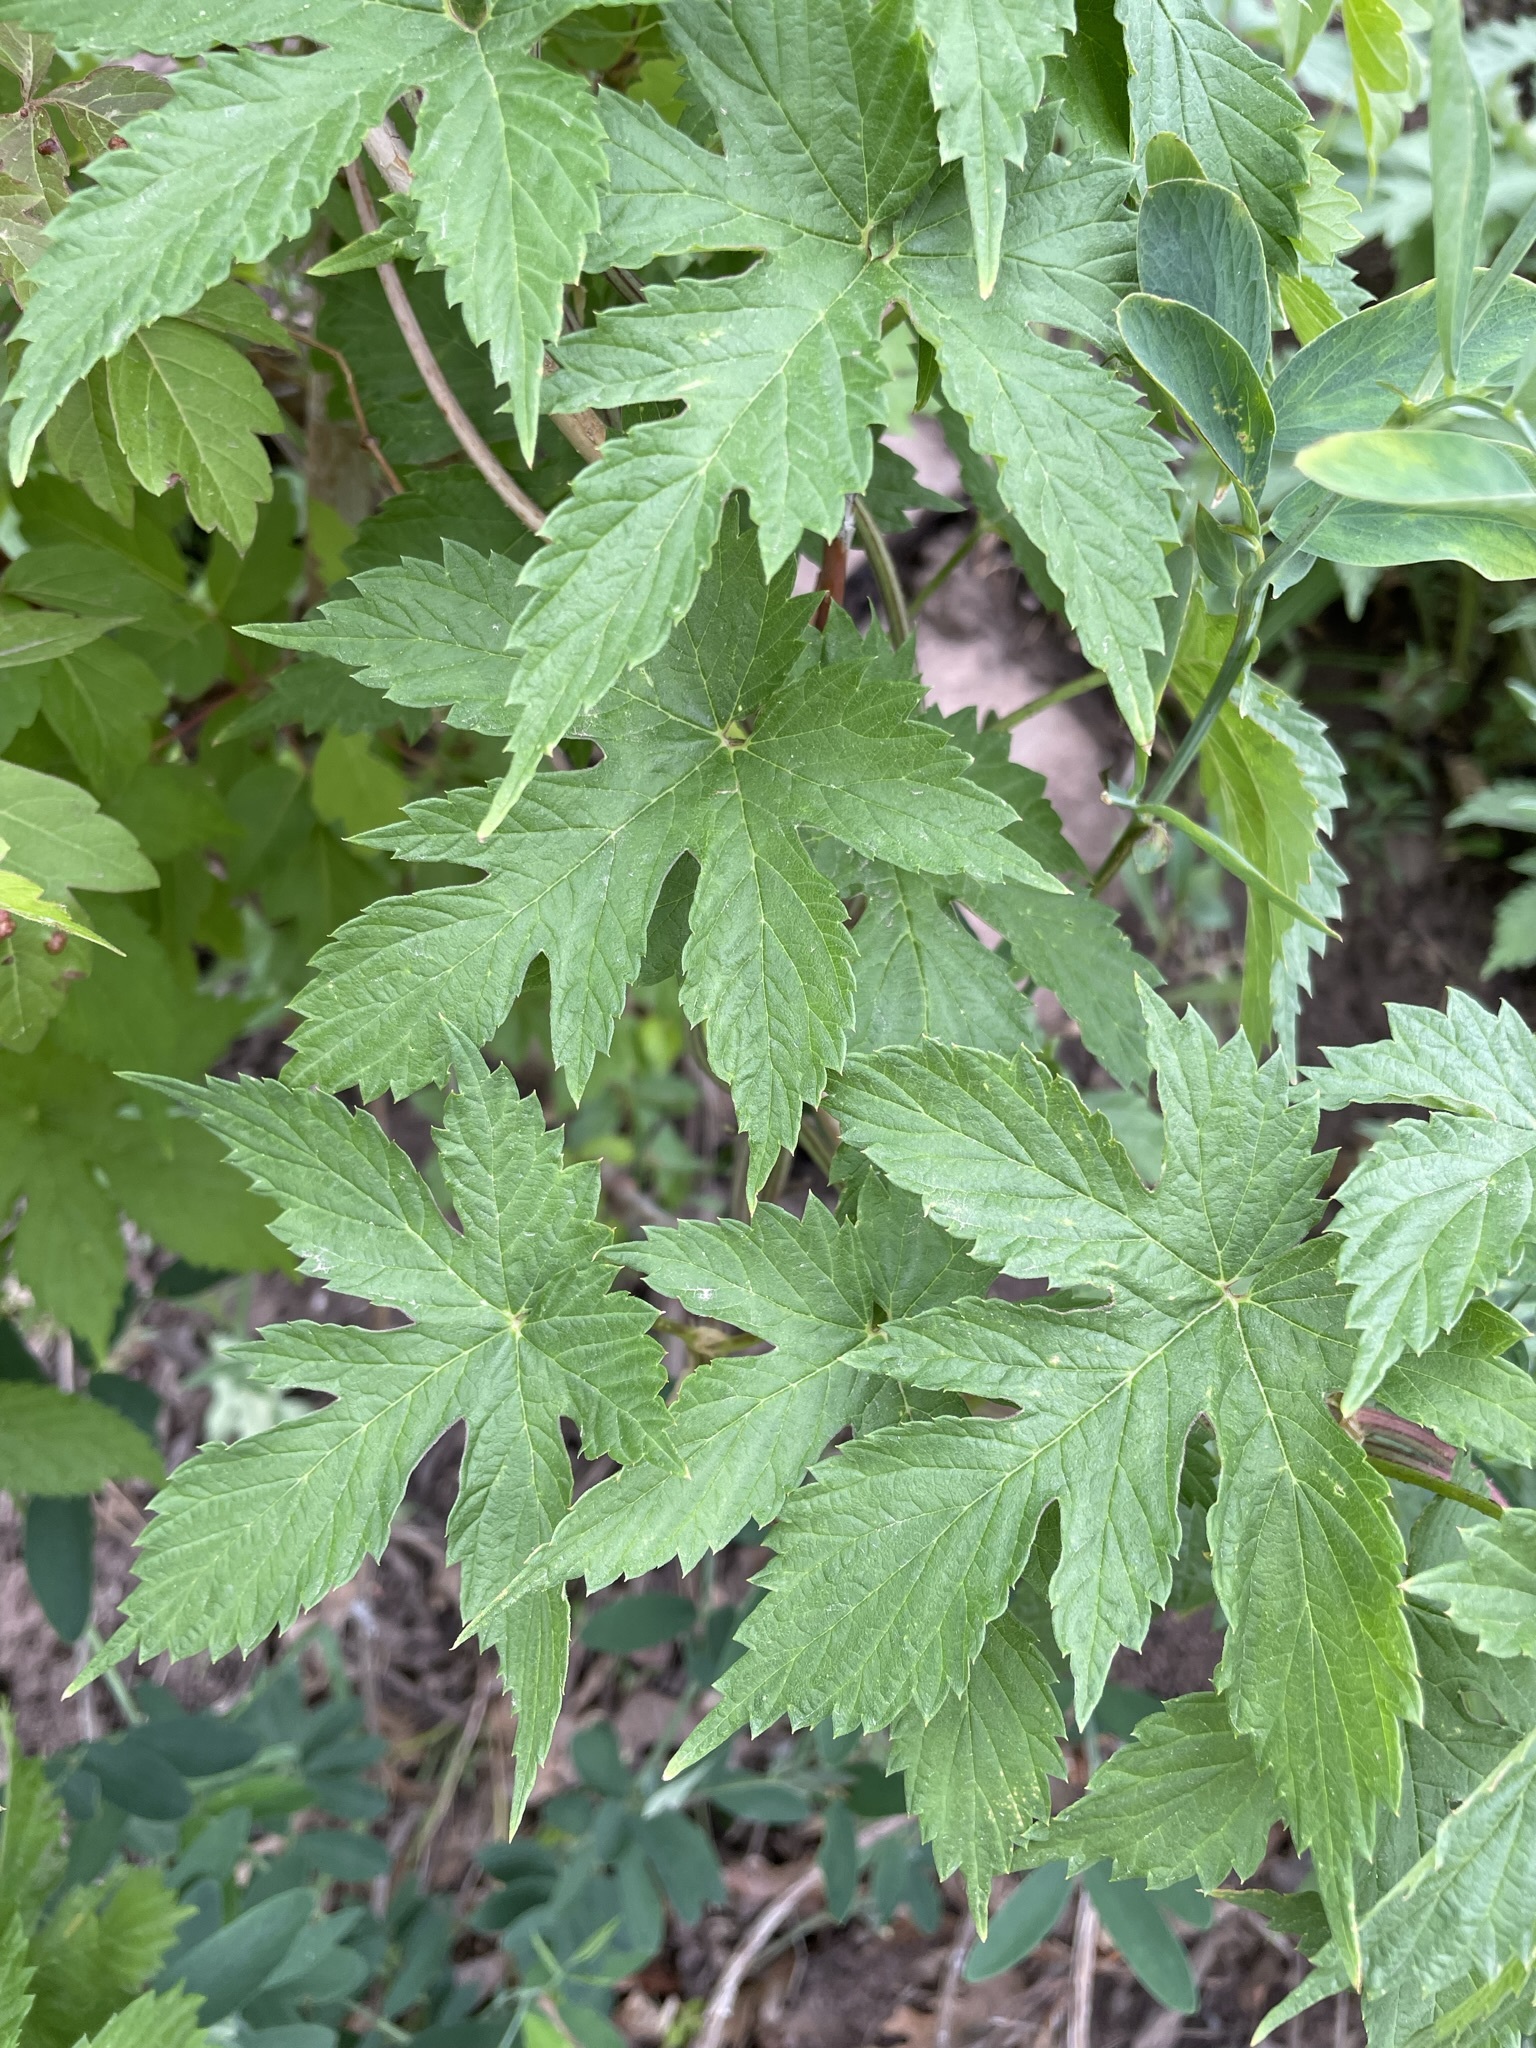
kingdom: Plantae
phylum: Tracheophyta
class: Magnoliopsida
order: Rosales
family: Cannabaceae
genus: Humulus
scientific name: Humulus lupulus
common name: Hop
